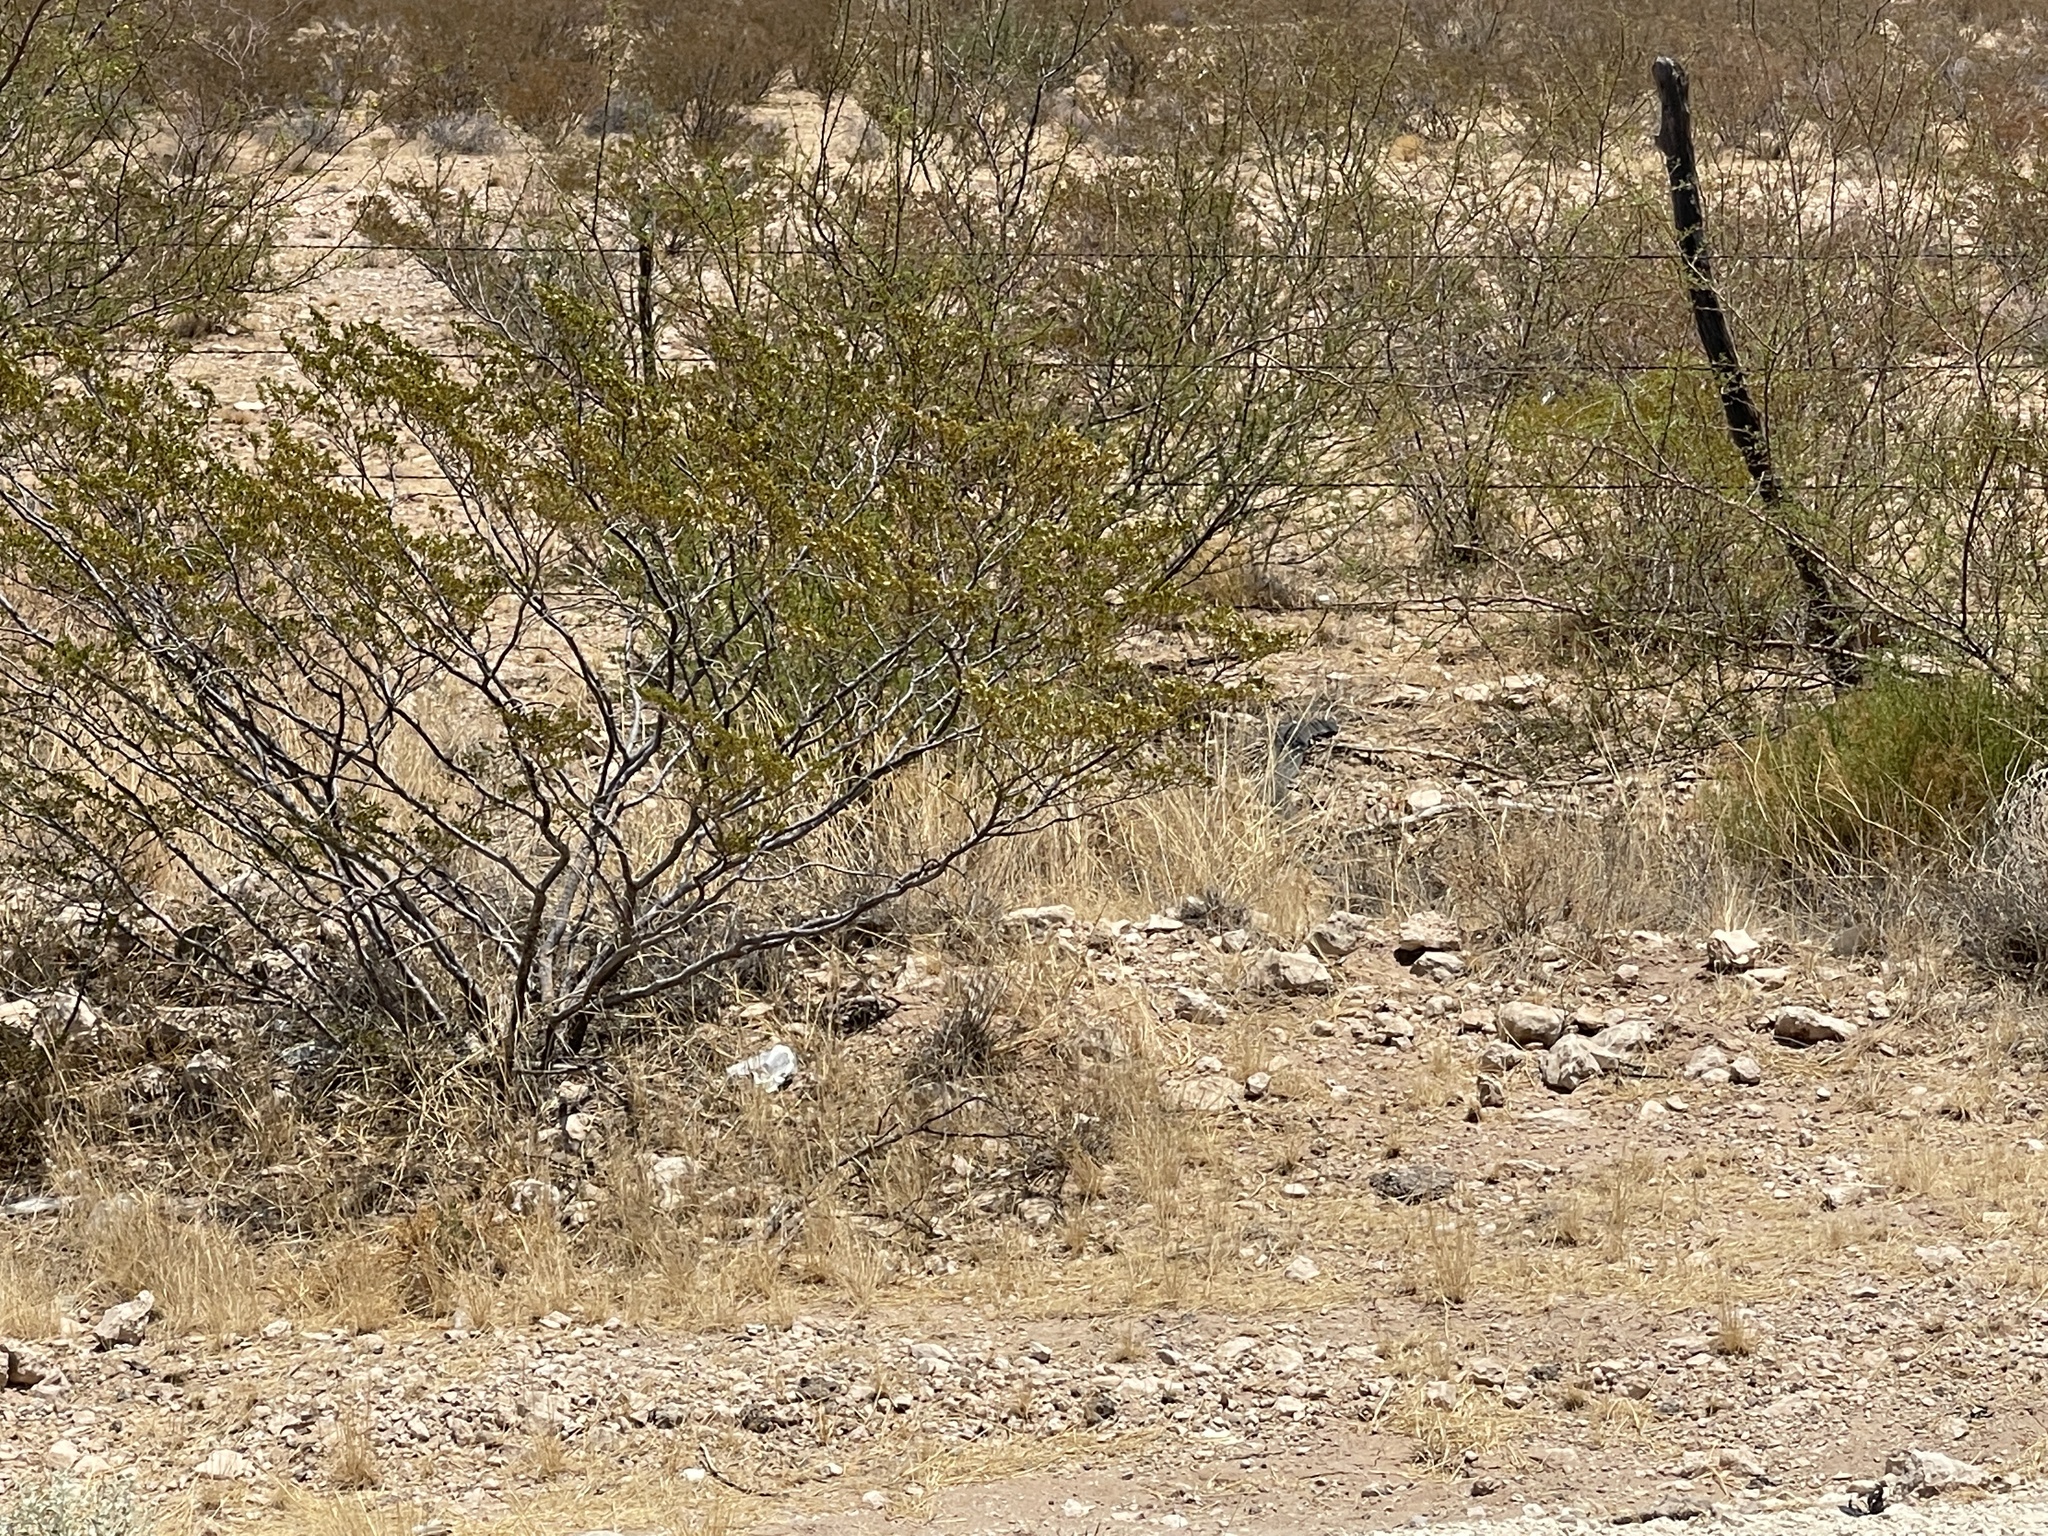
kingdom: Plantae
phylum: Tracheophyta
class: Magnoliopsida
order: Zygophyllales
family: Zygophyllaceae
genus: Larrea
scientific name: Larrea tridentata
